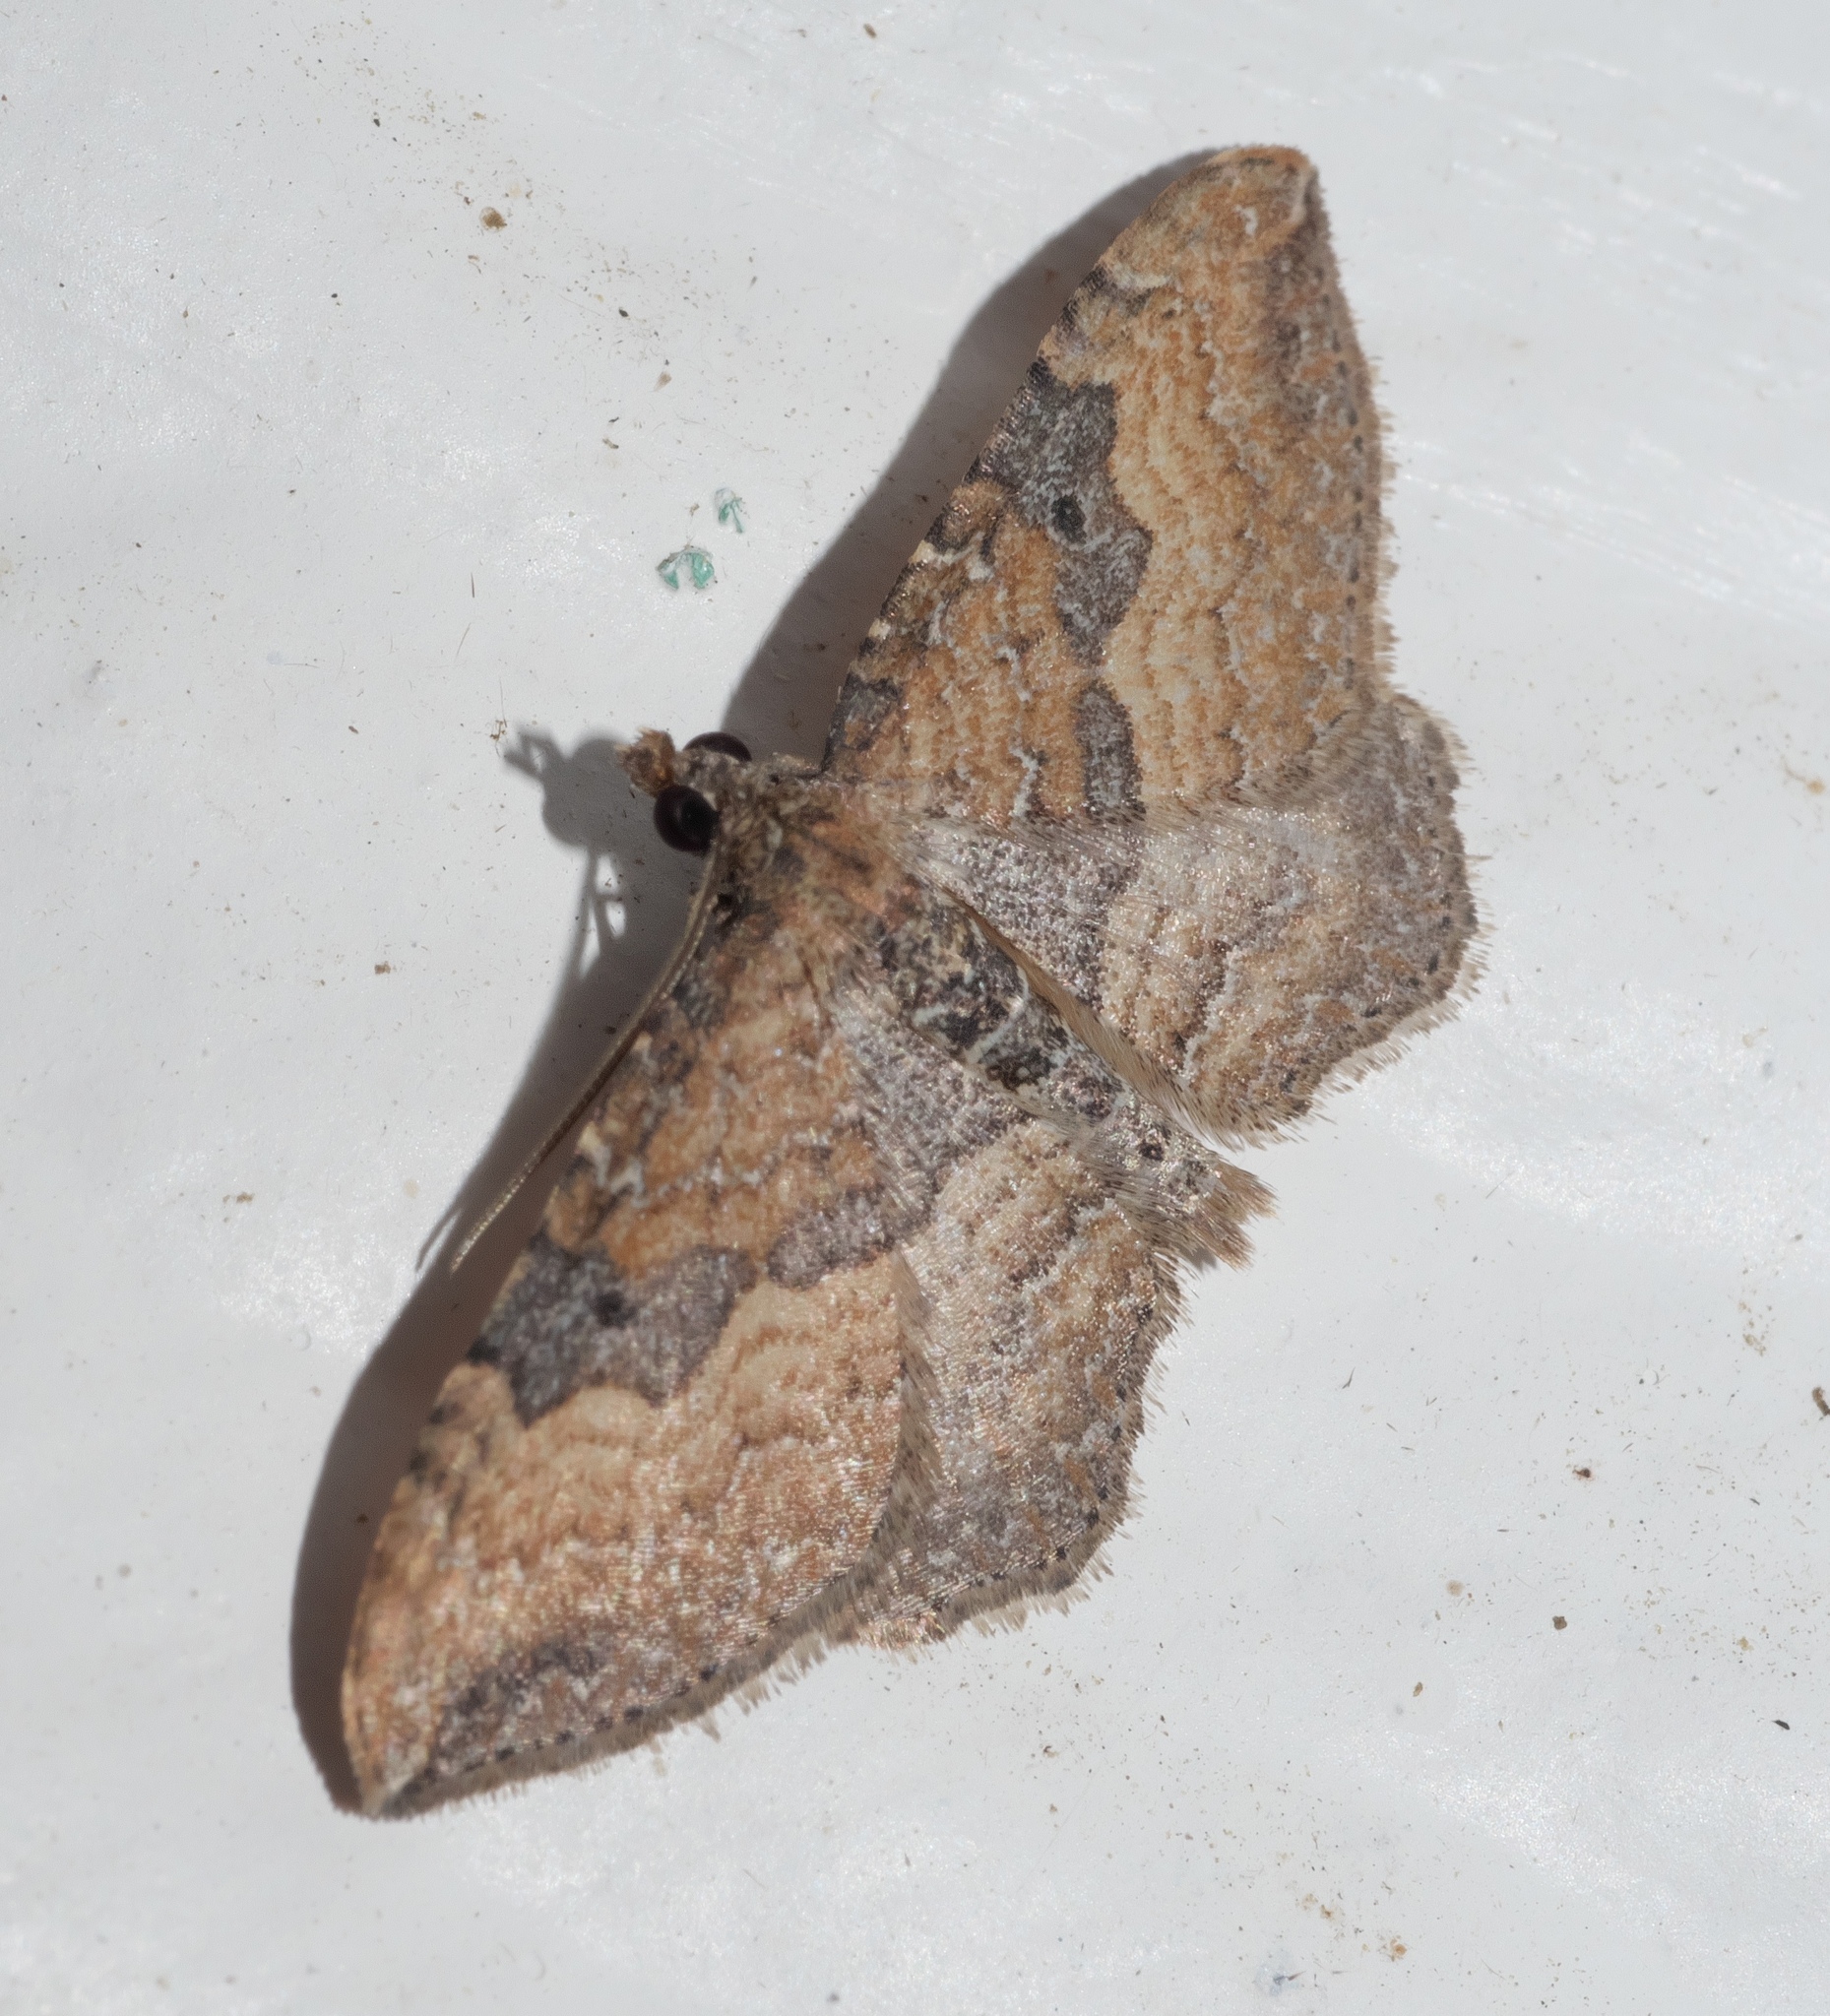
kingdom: Animalia
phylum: Arthropoda
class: Insecta
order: Lepidoptera
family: Geometridae
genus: Orthonama
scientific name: Orthonama obstipata
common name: The gem
